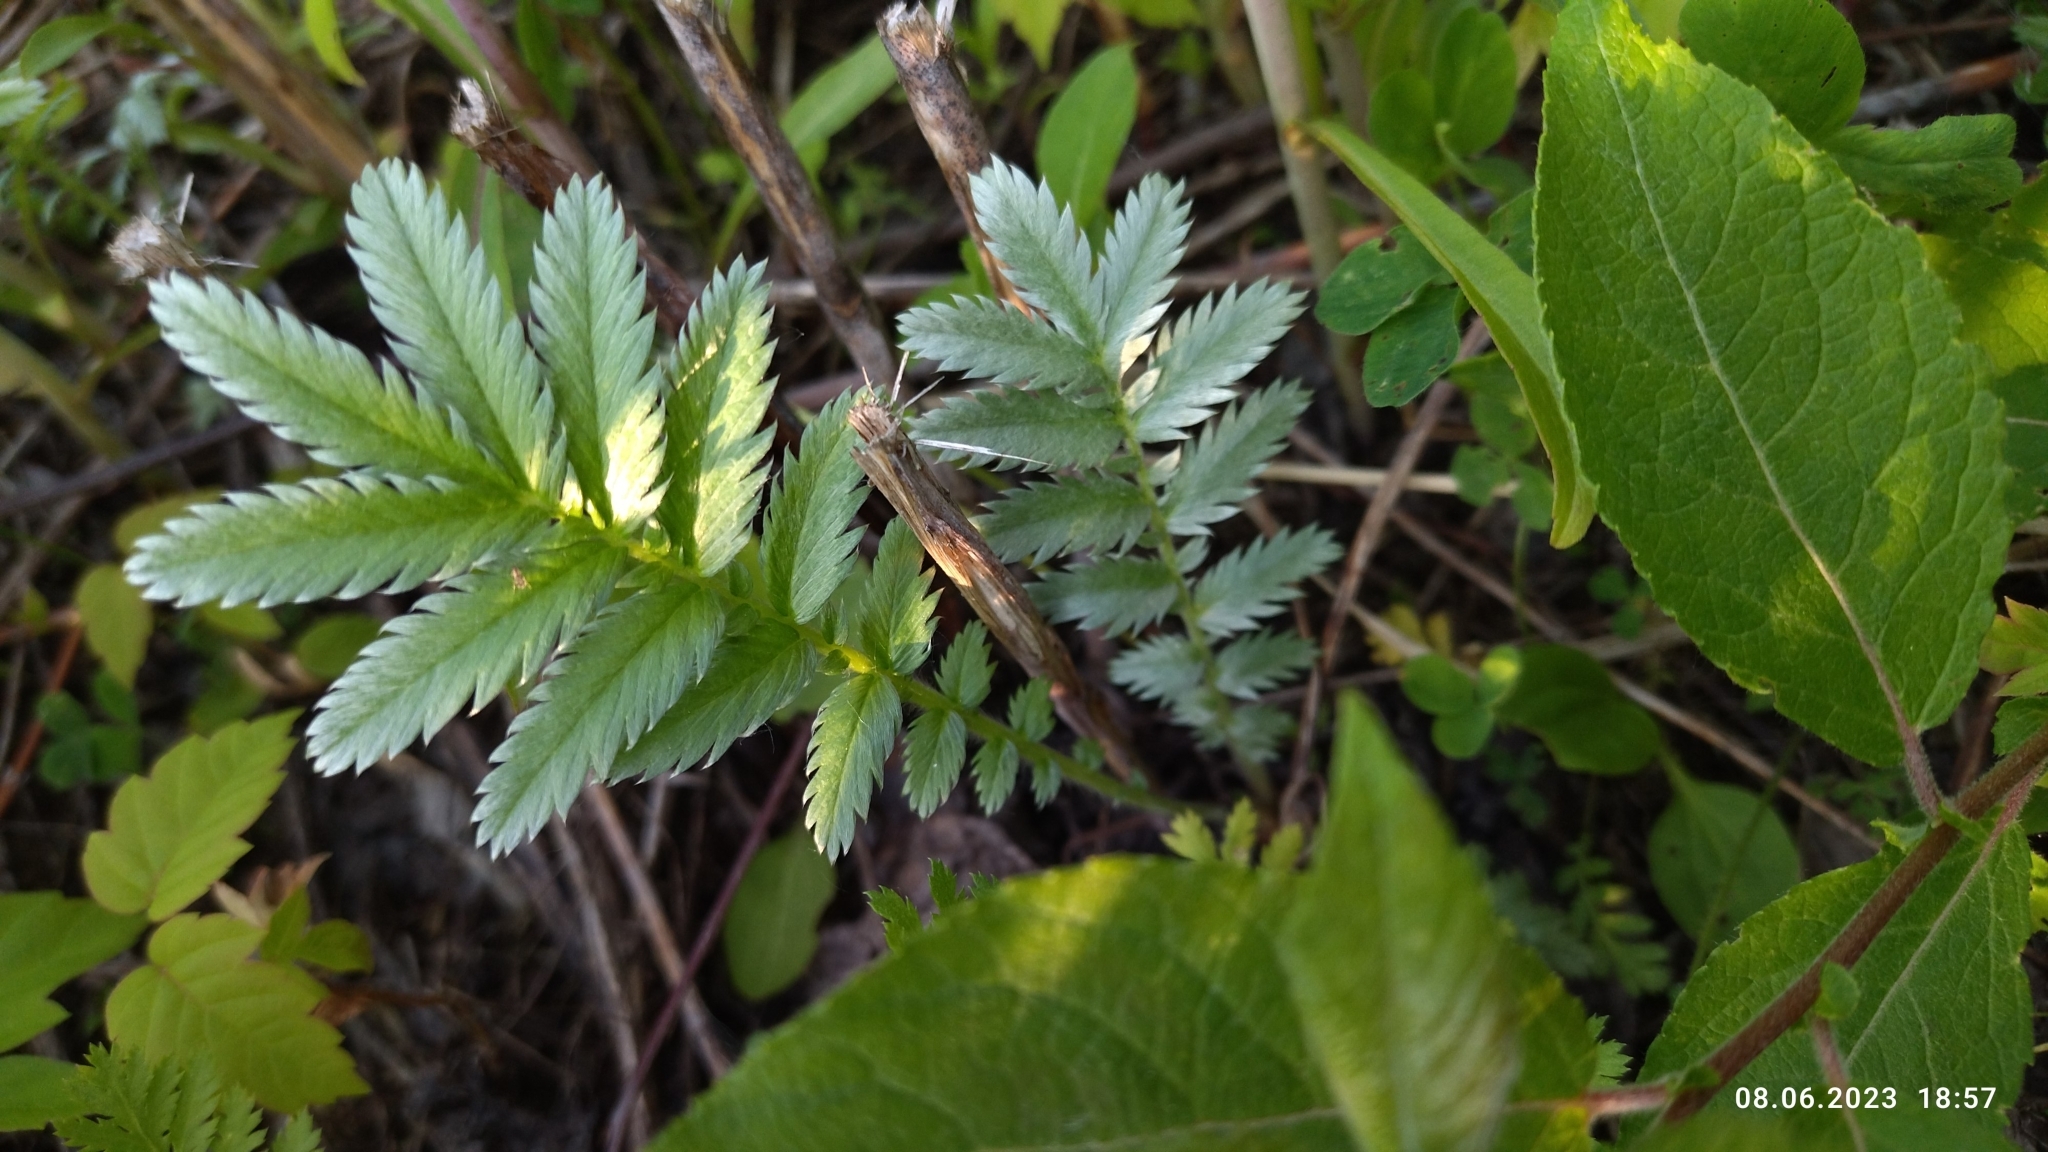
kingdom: Plantae
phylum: Tracheophyta
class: Magnoliopsida
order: Rosales
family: Rosaceae
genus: Argentina
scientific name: Argentina anserina
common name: Common silverweed
